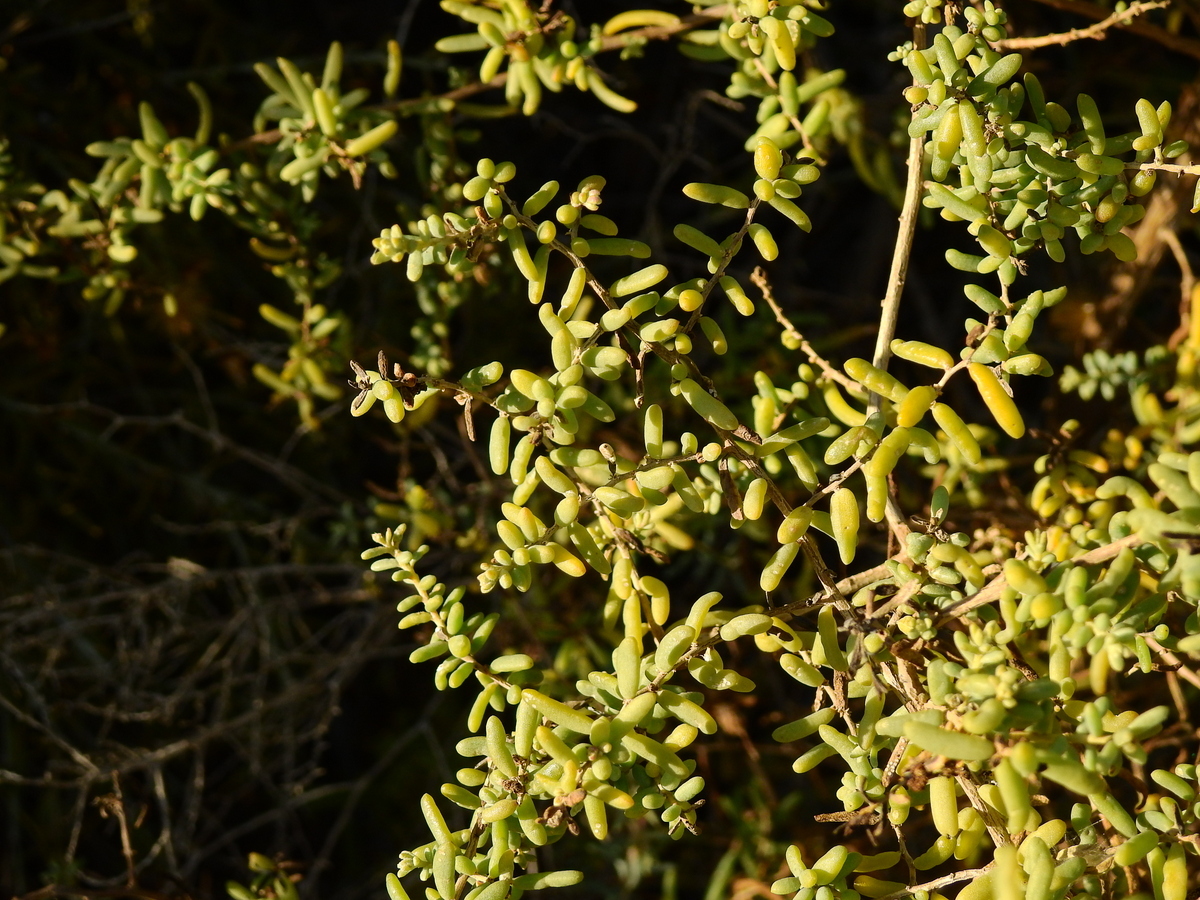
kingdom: Plantae
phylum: Tracheophyta
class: Magnoliopsida
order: Caryophyllales
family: Amaranthaceae
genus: Suaeda
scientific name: Suaeda divaricata
